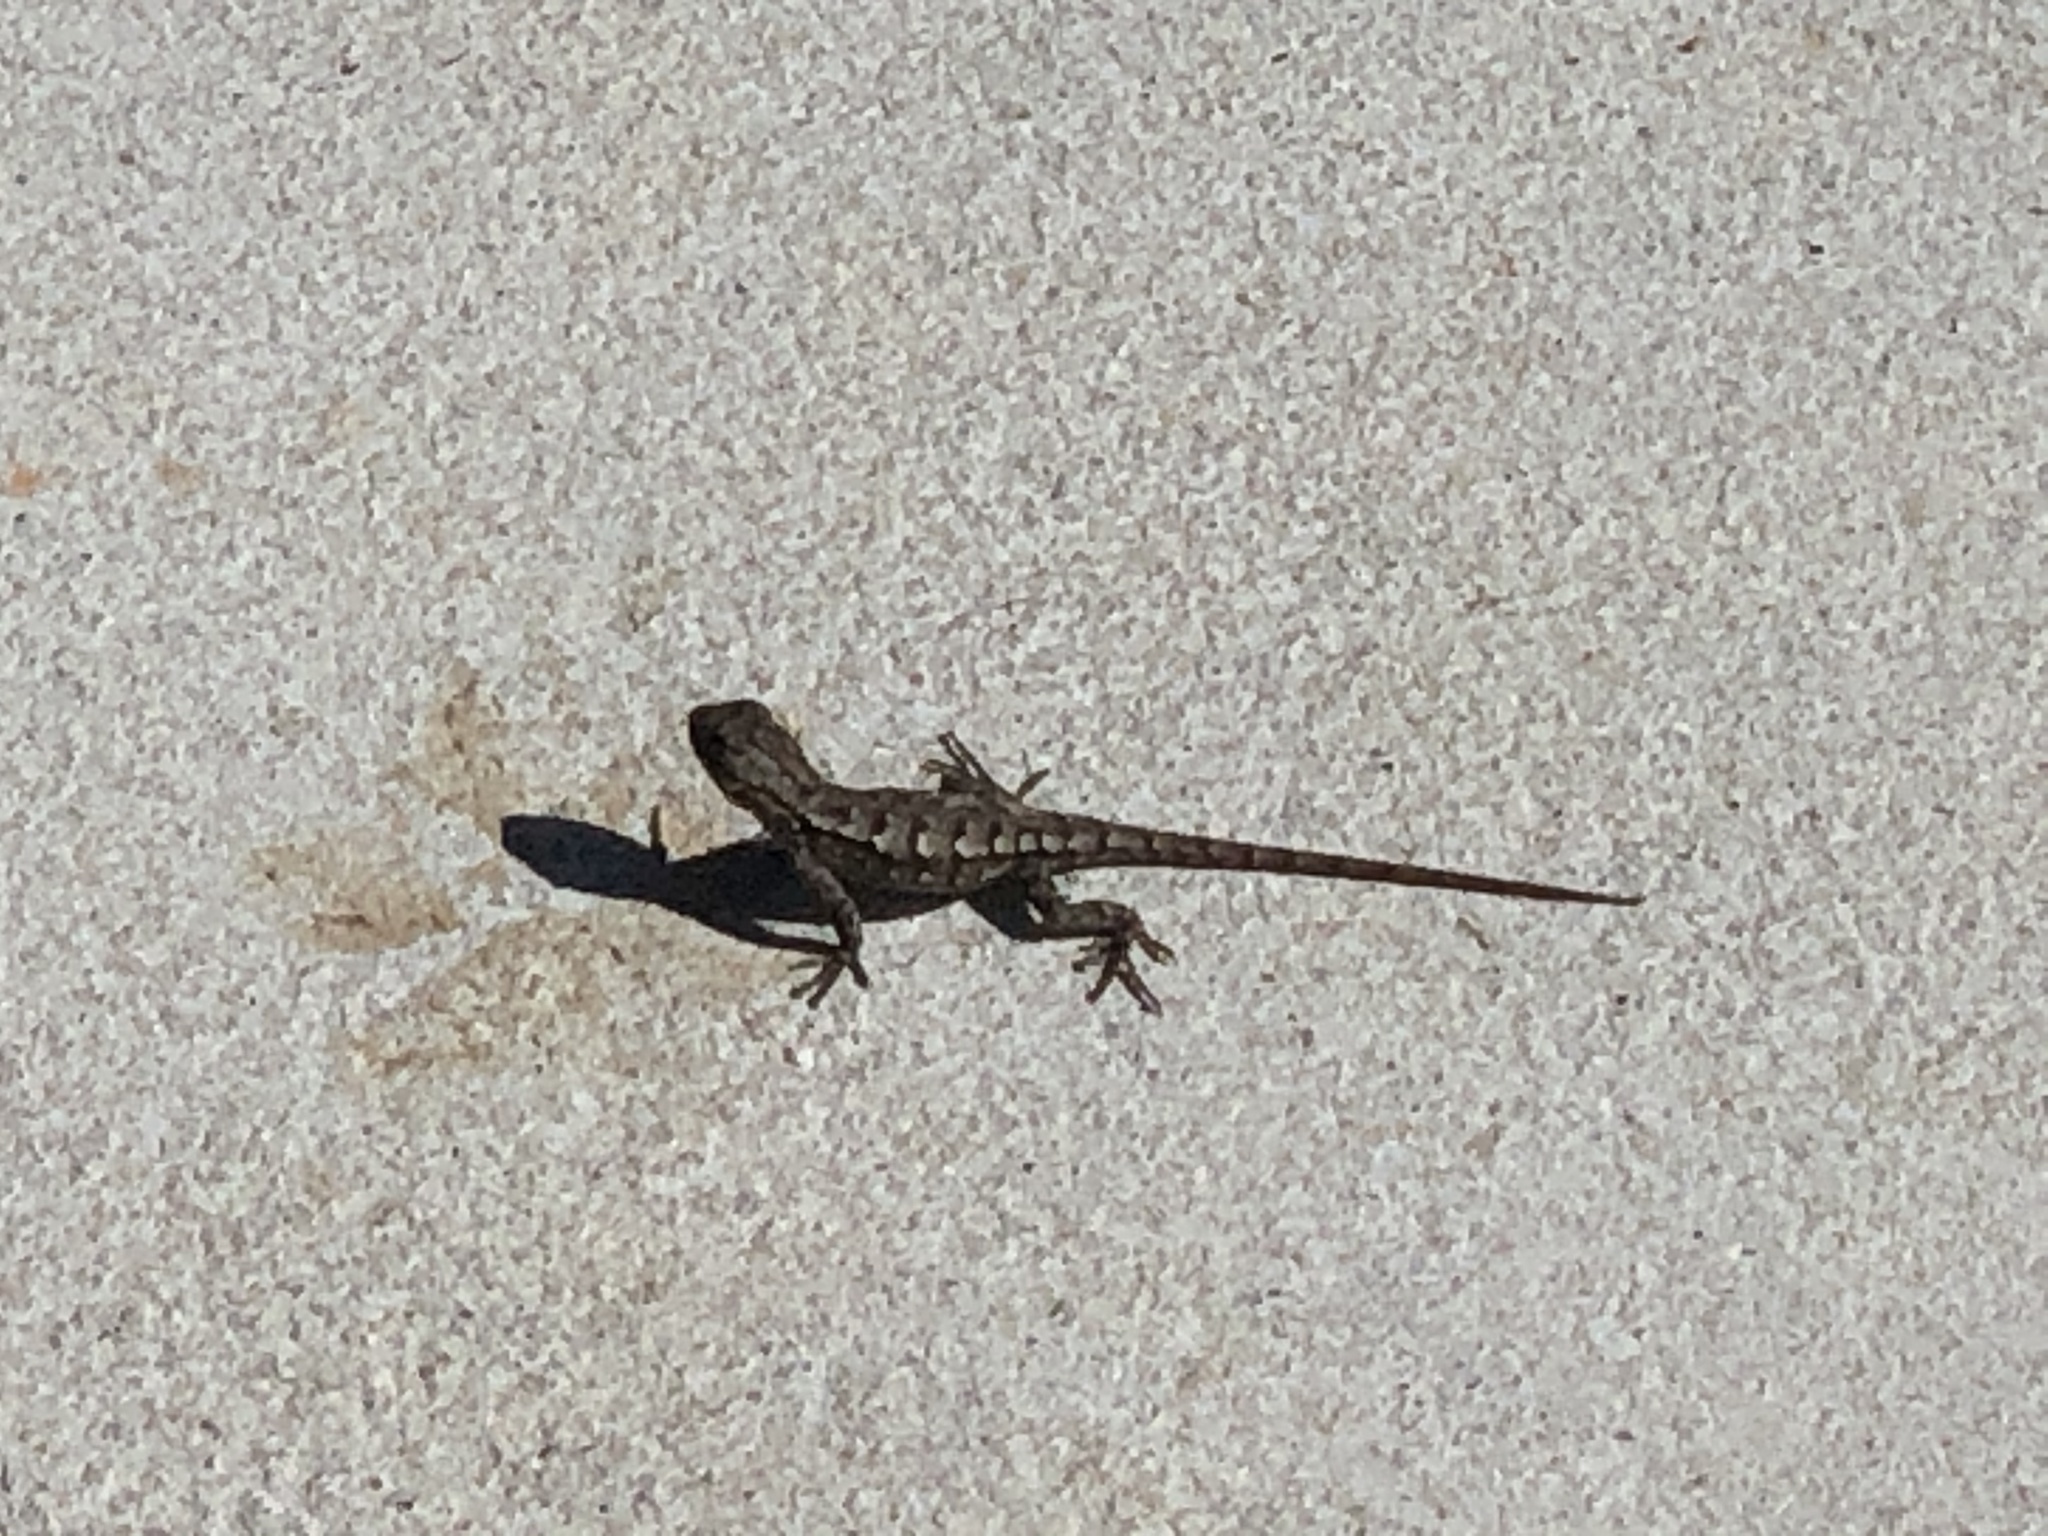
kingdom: Animalia
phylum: Chordata
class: Squamata
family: Phrynosomatidae
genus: Sceloporus
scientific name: Sceloporus consobrinus
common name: Southern prairie lizard
